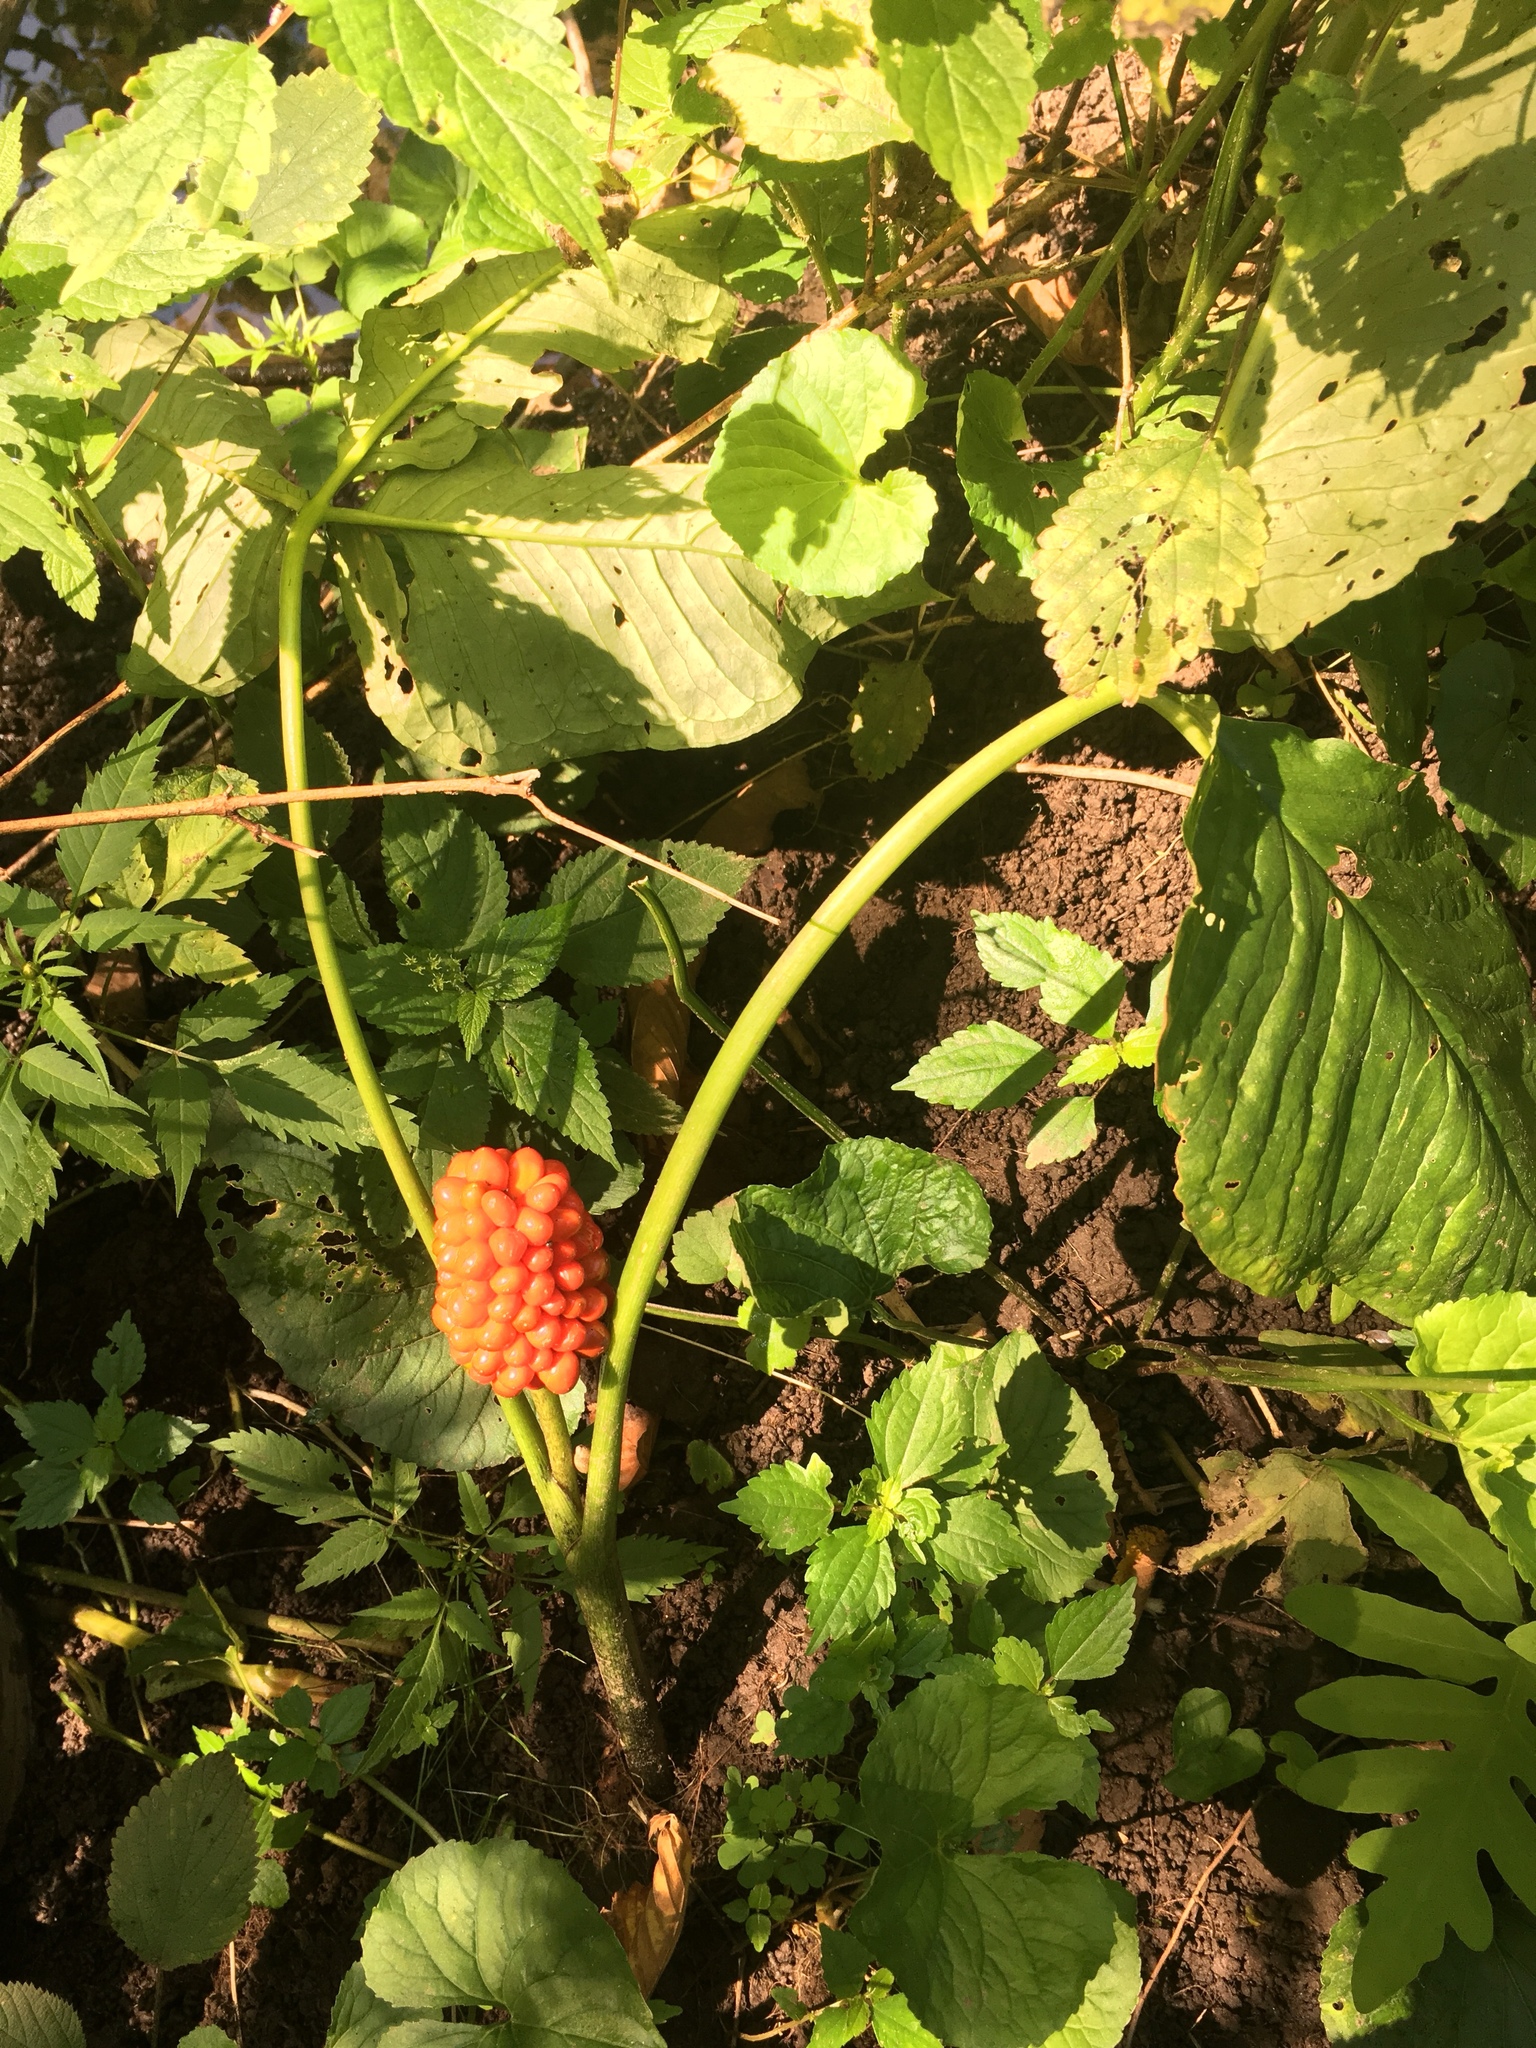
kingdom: Plantae
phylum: Tracheophyta
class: Liliopsida
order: Alismatales
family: Araceae
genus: Arisaema
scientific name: Arisaema triphyllum
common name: Jack-in-the-pulpit
